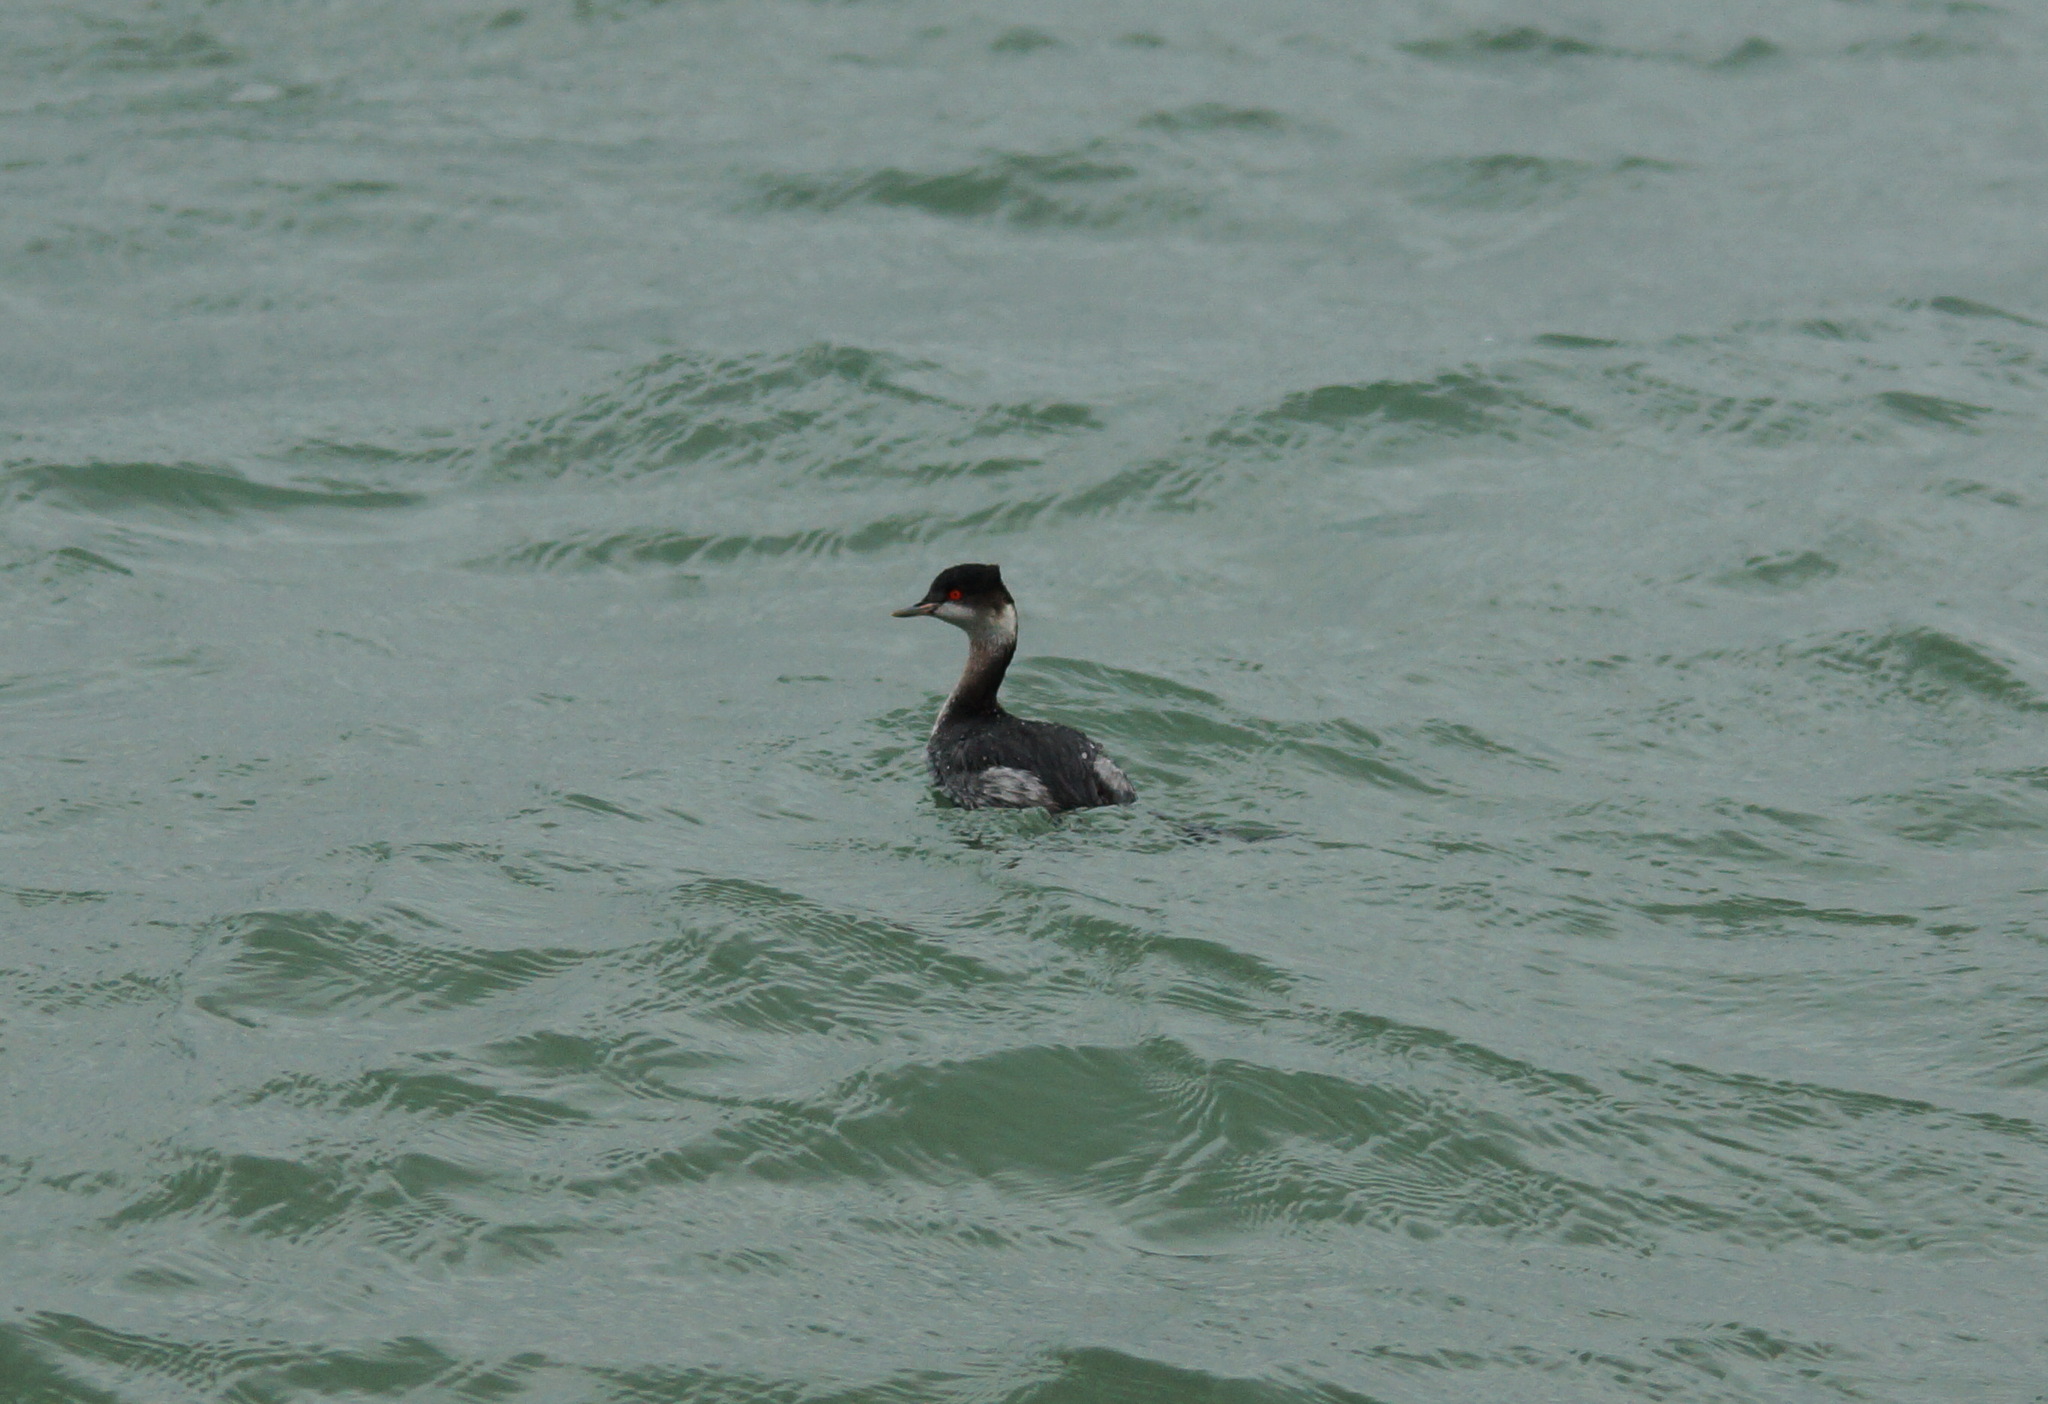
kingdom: Animalia
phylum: Chordata
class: Aves
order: Podicipediformes
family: Podicipedidae
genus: Podiceps
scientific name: Podiceps nigricollis
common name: Black-necked grebe
